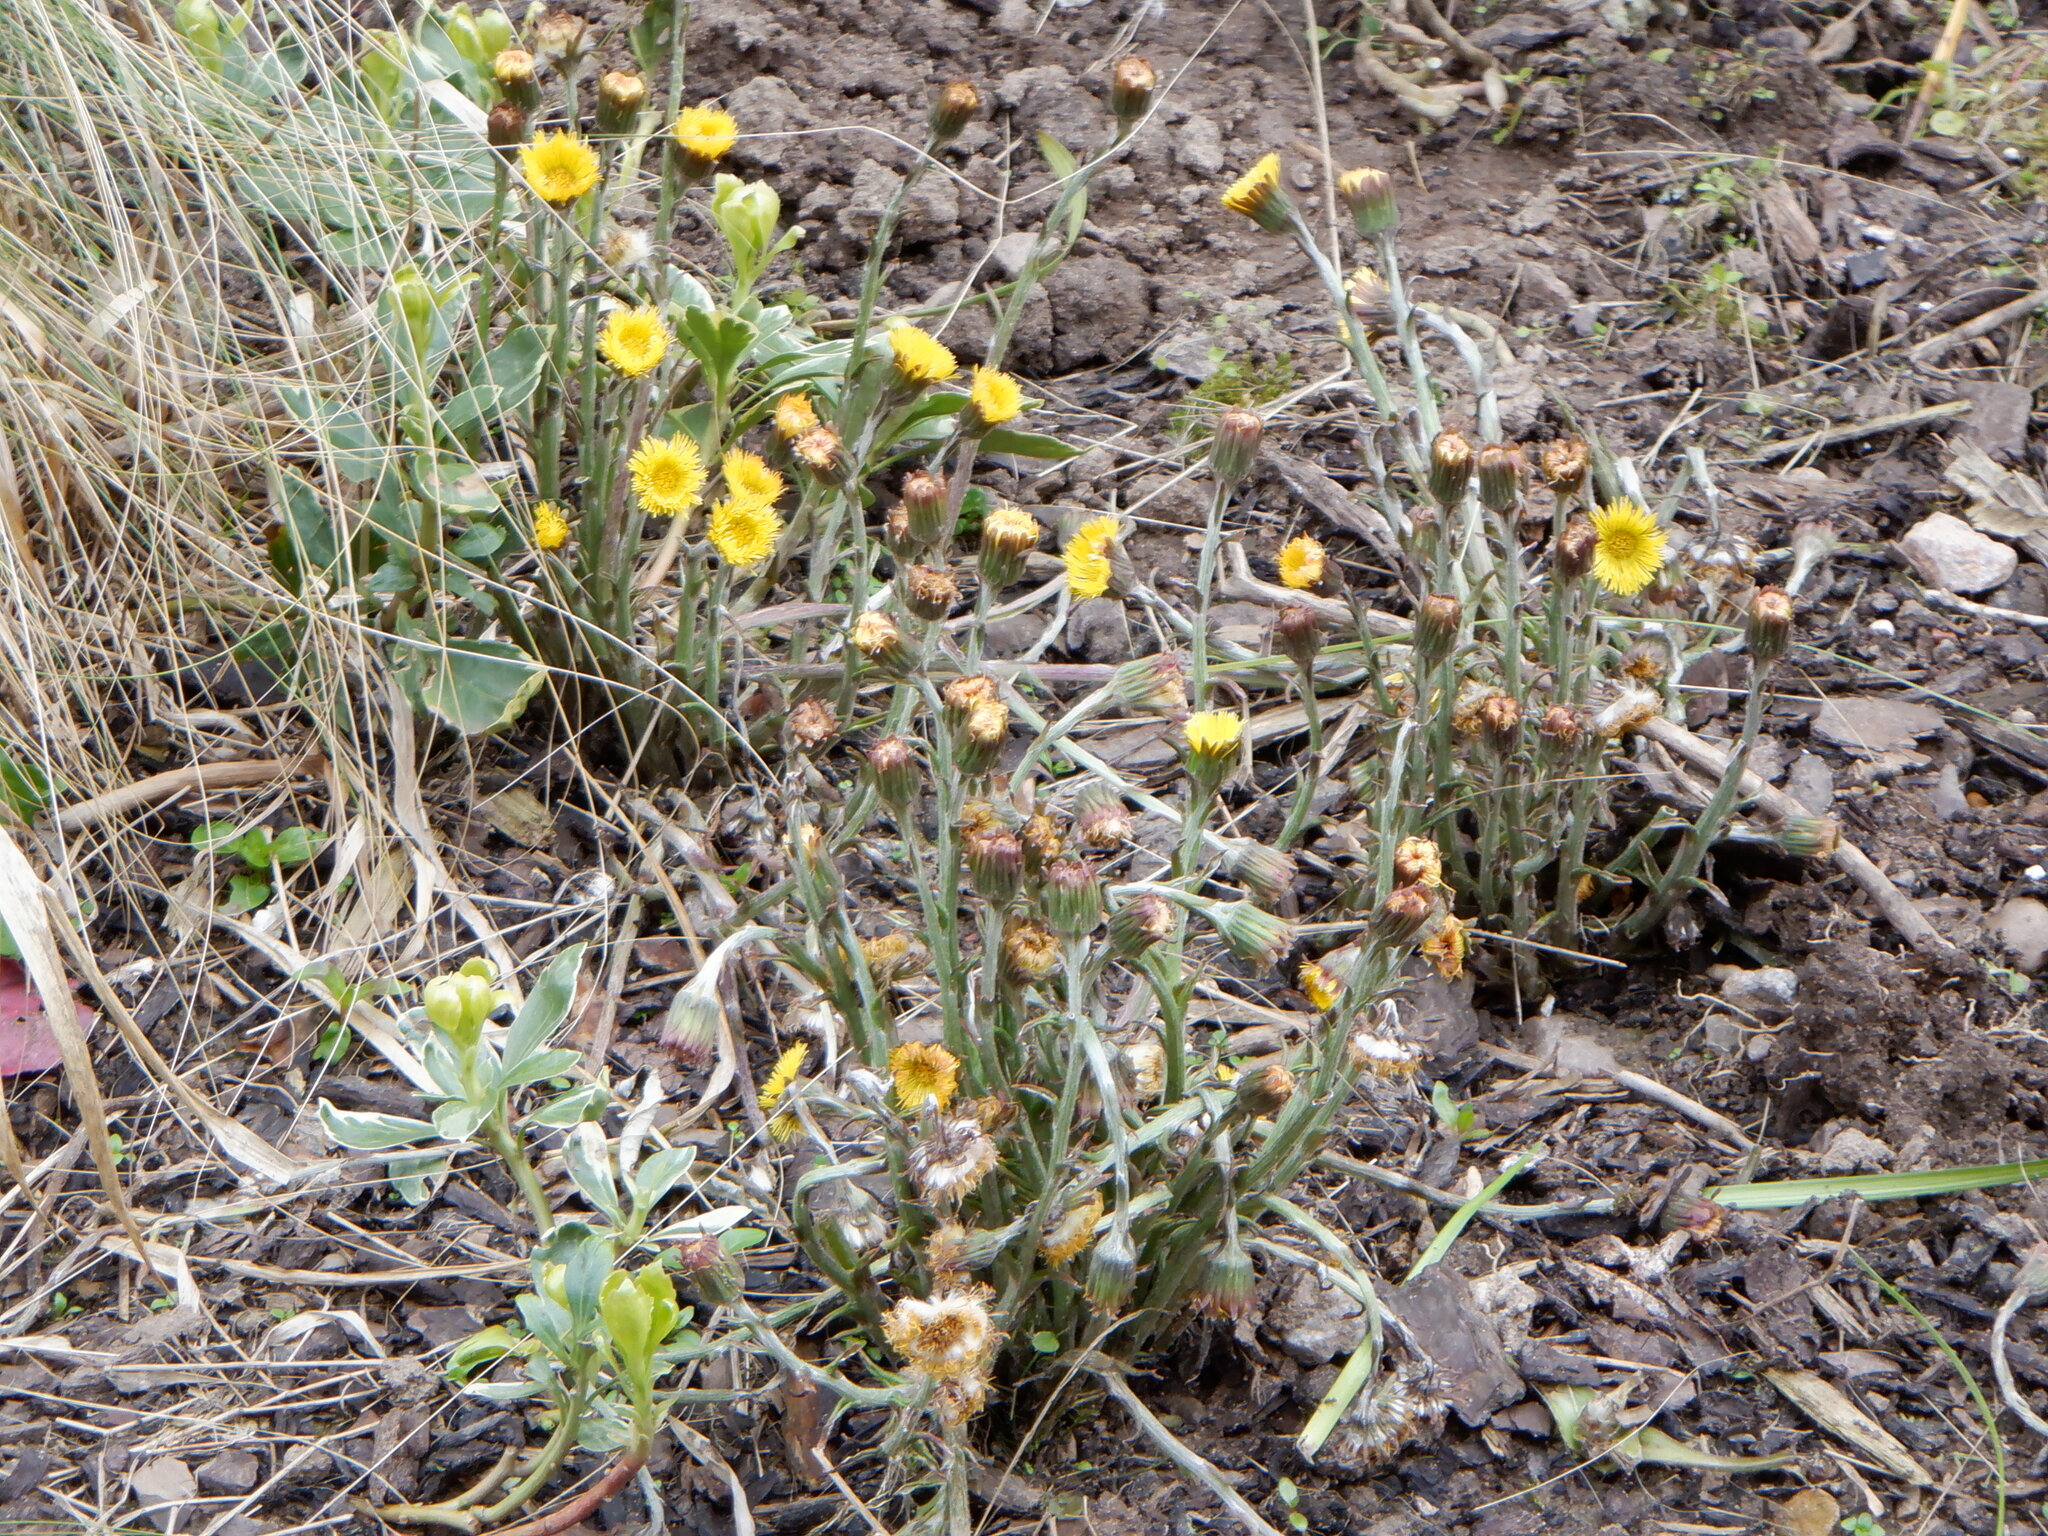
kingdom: Plantae
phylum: Tracheophyta
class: Magnoliopsida
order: Asterales
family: Asteraceae
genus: Tussilago
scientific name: Tussilago farfara
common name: Coltsfoot
